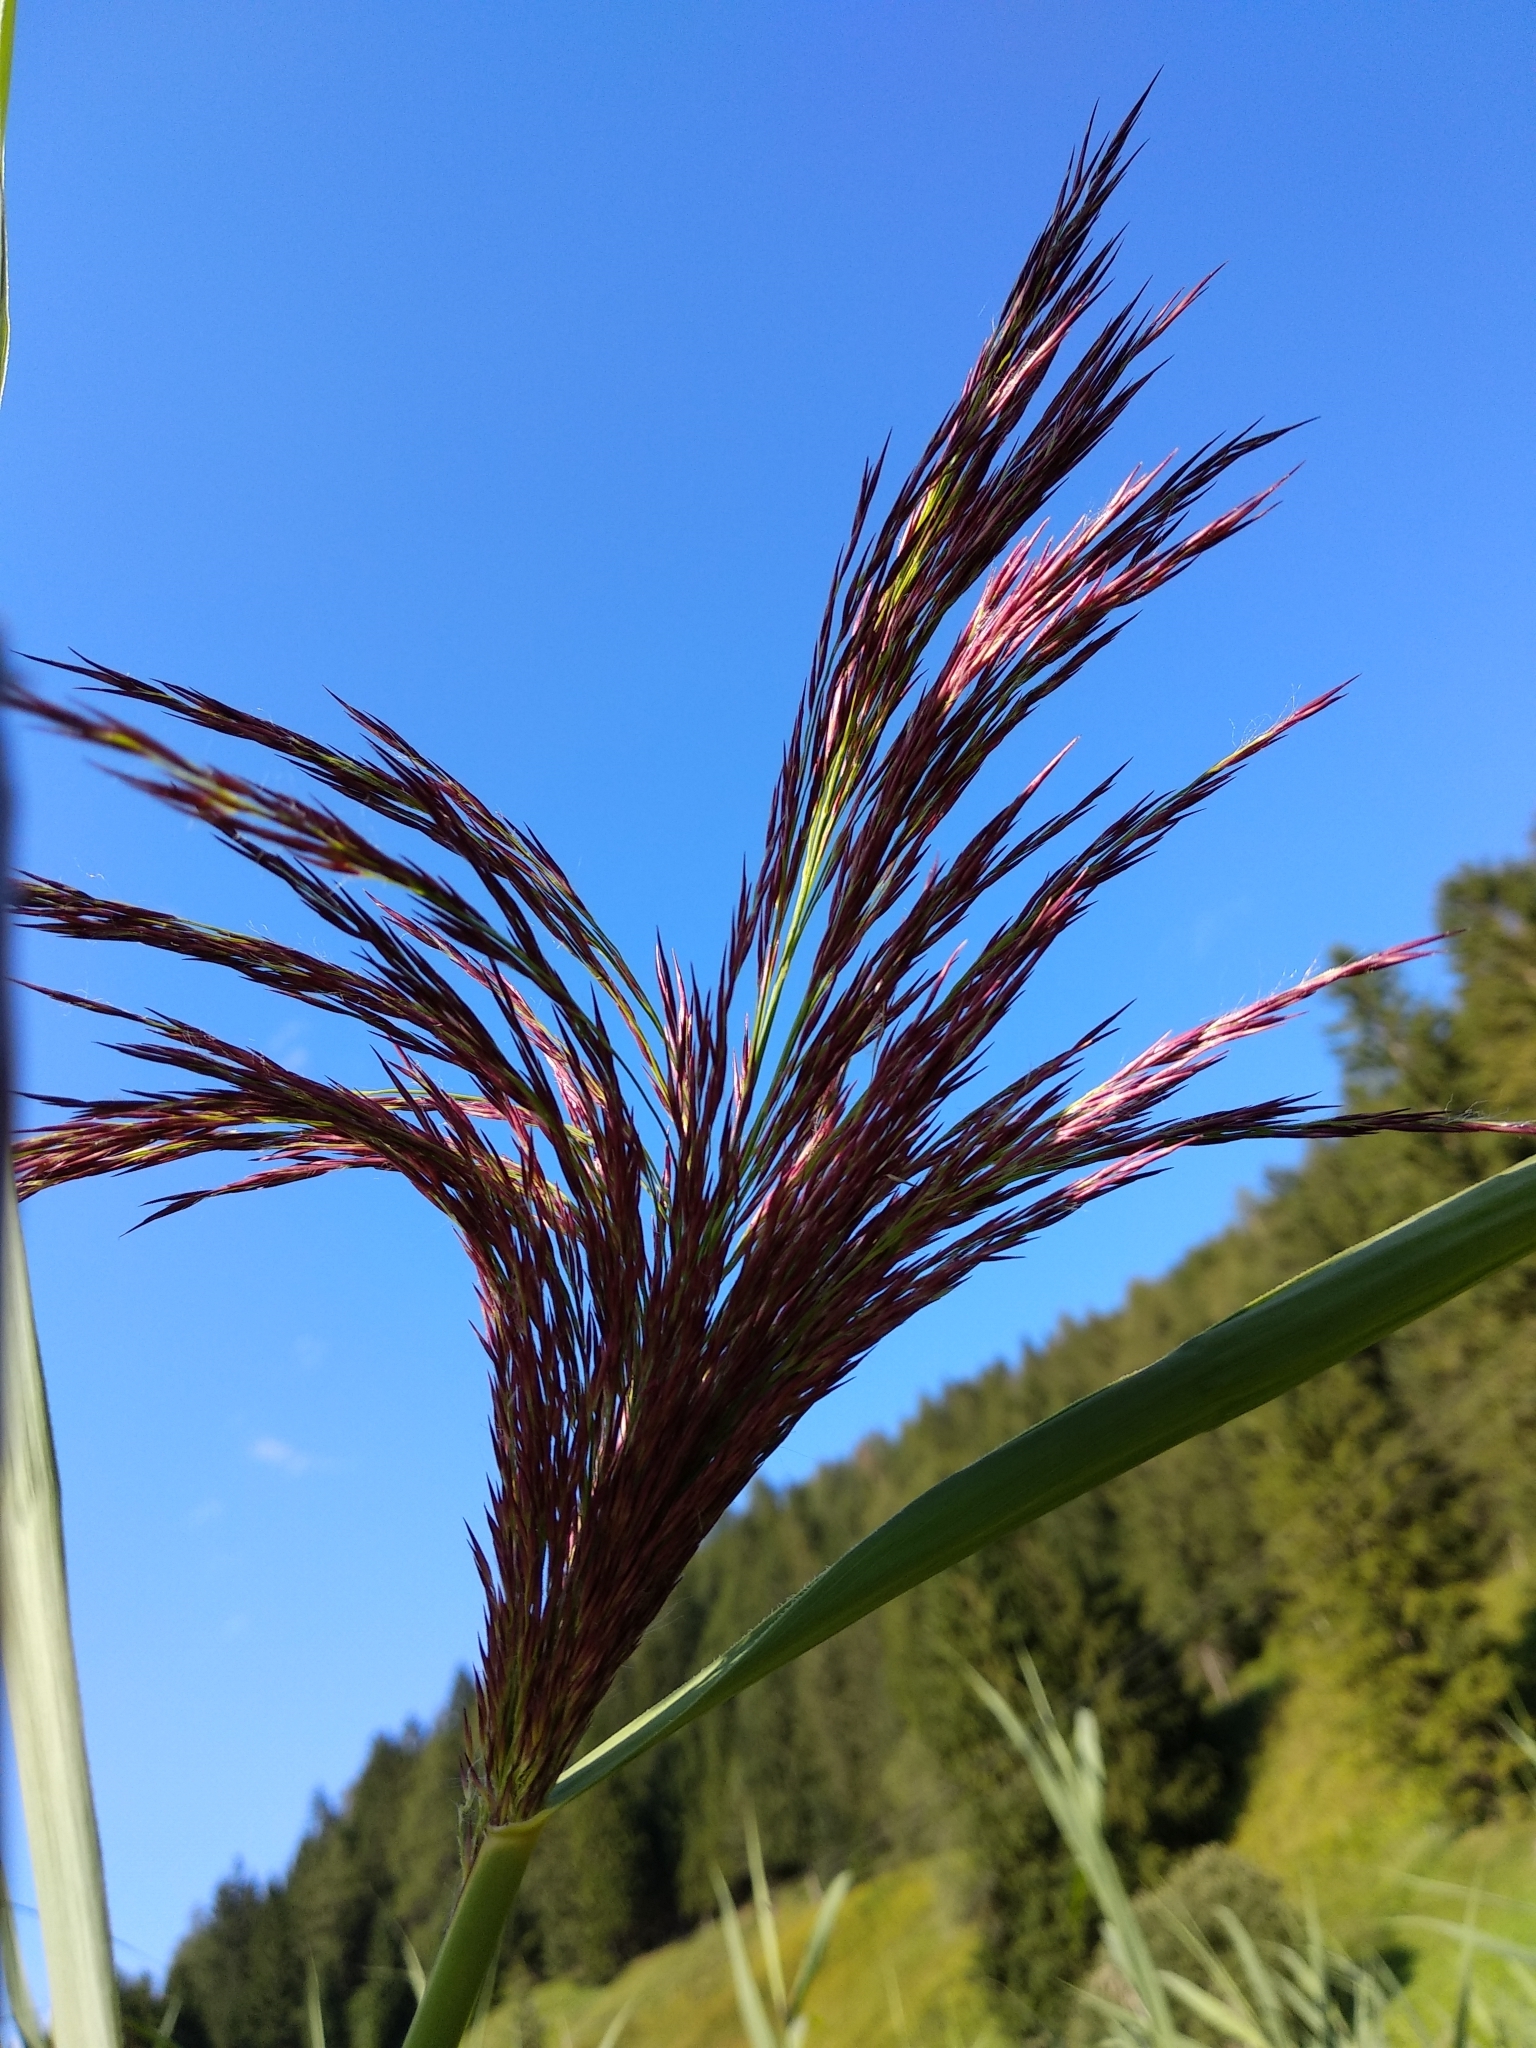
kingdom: Plantae
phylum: Tracheophyta
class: Liliopsida
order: Poales
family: Poaceae
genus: Phragmites
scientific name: Phragmites australis
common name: Common reed
